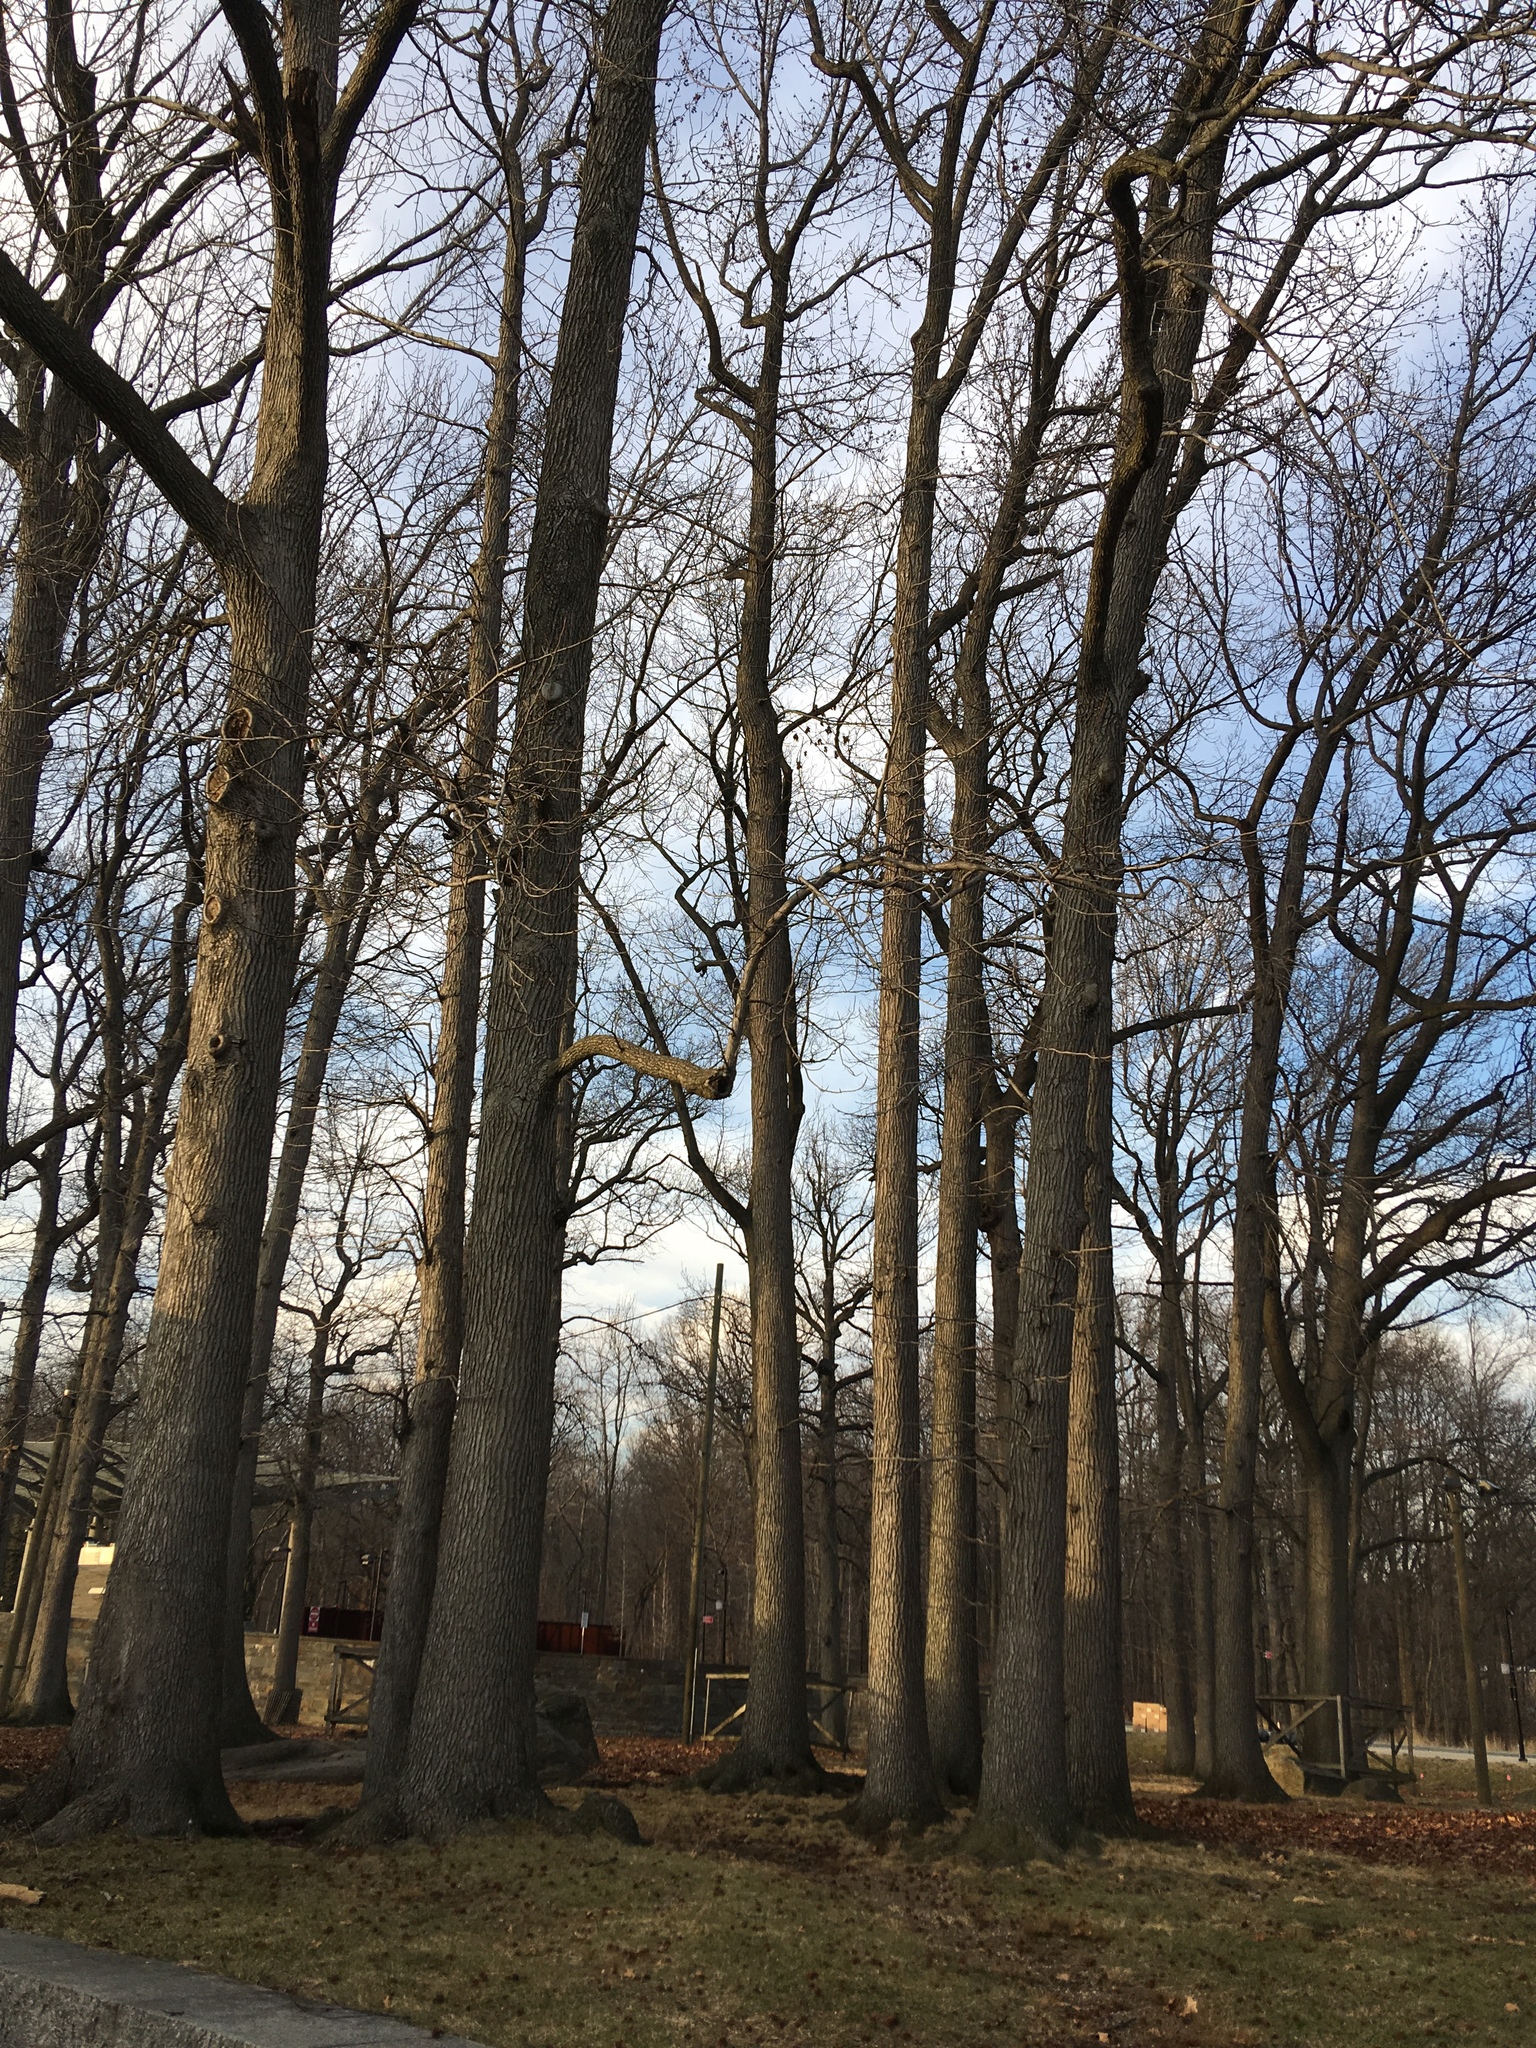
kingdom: Plantae
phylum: Tracheophyta
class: Magnoliopsida
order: Saxifragales
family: Altingiaceae
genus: Liquidambar
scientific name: Liquidambar styraciflua
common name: Sweet gum
